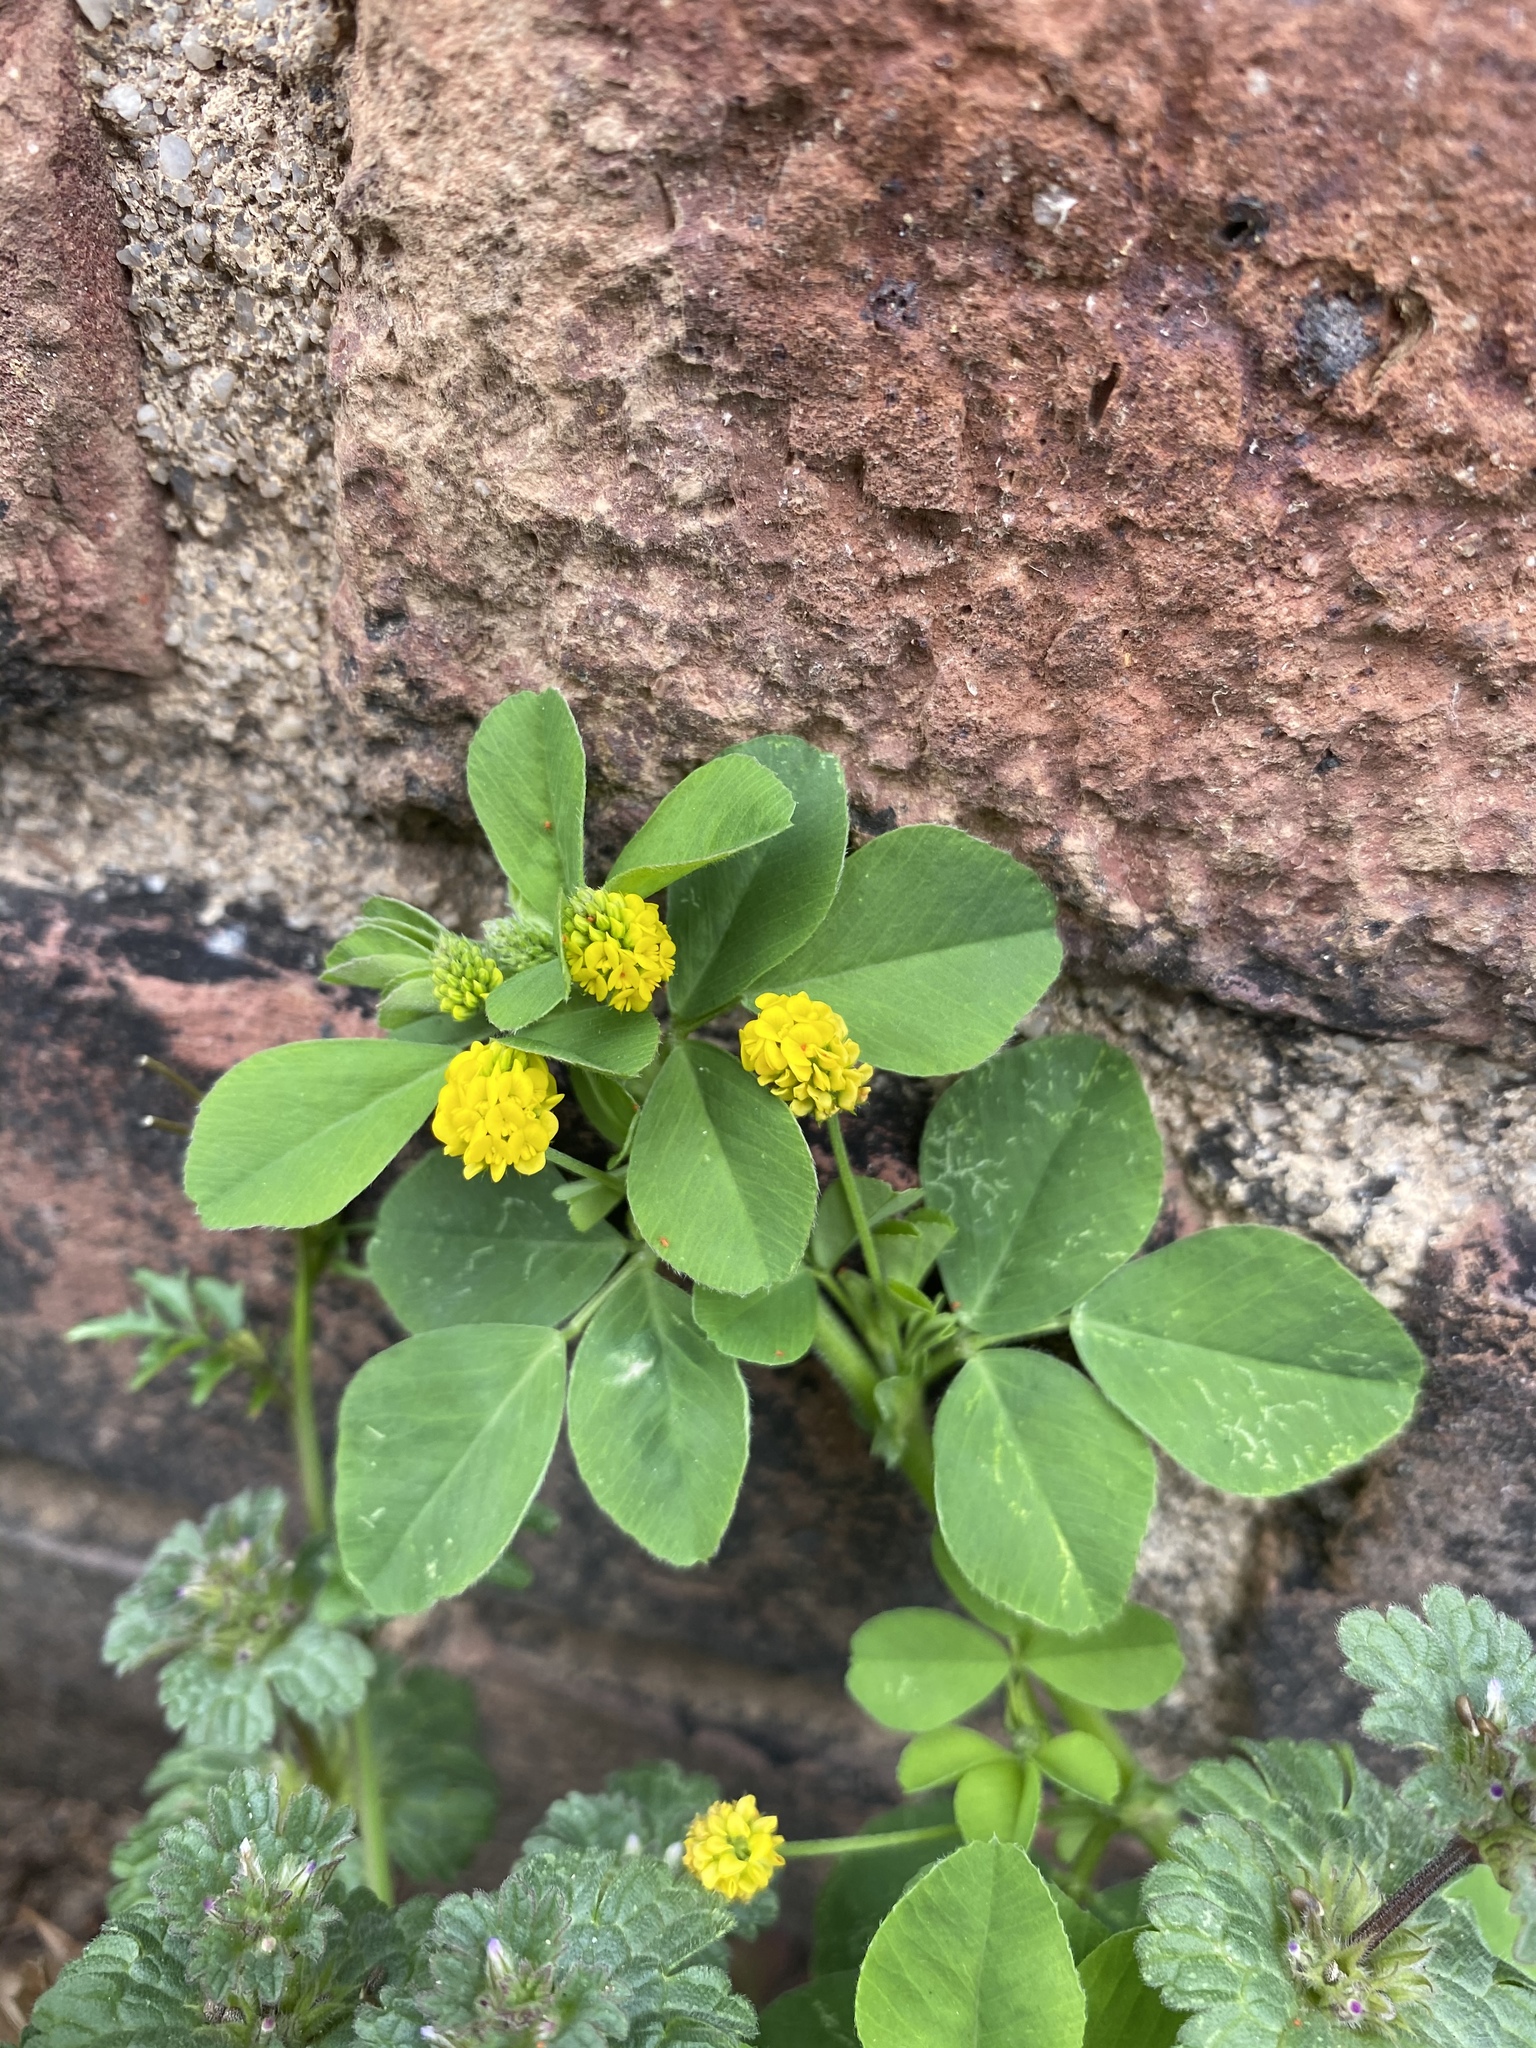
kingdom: Plantae
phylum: Tracheophyta
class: Magnoliopsida
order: Fabales
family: Fabaceae
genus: Medicago
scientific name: Medicago lupulina
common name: Black medick
